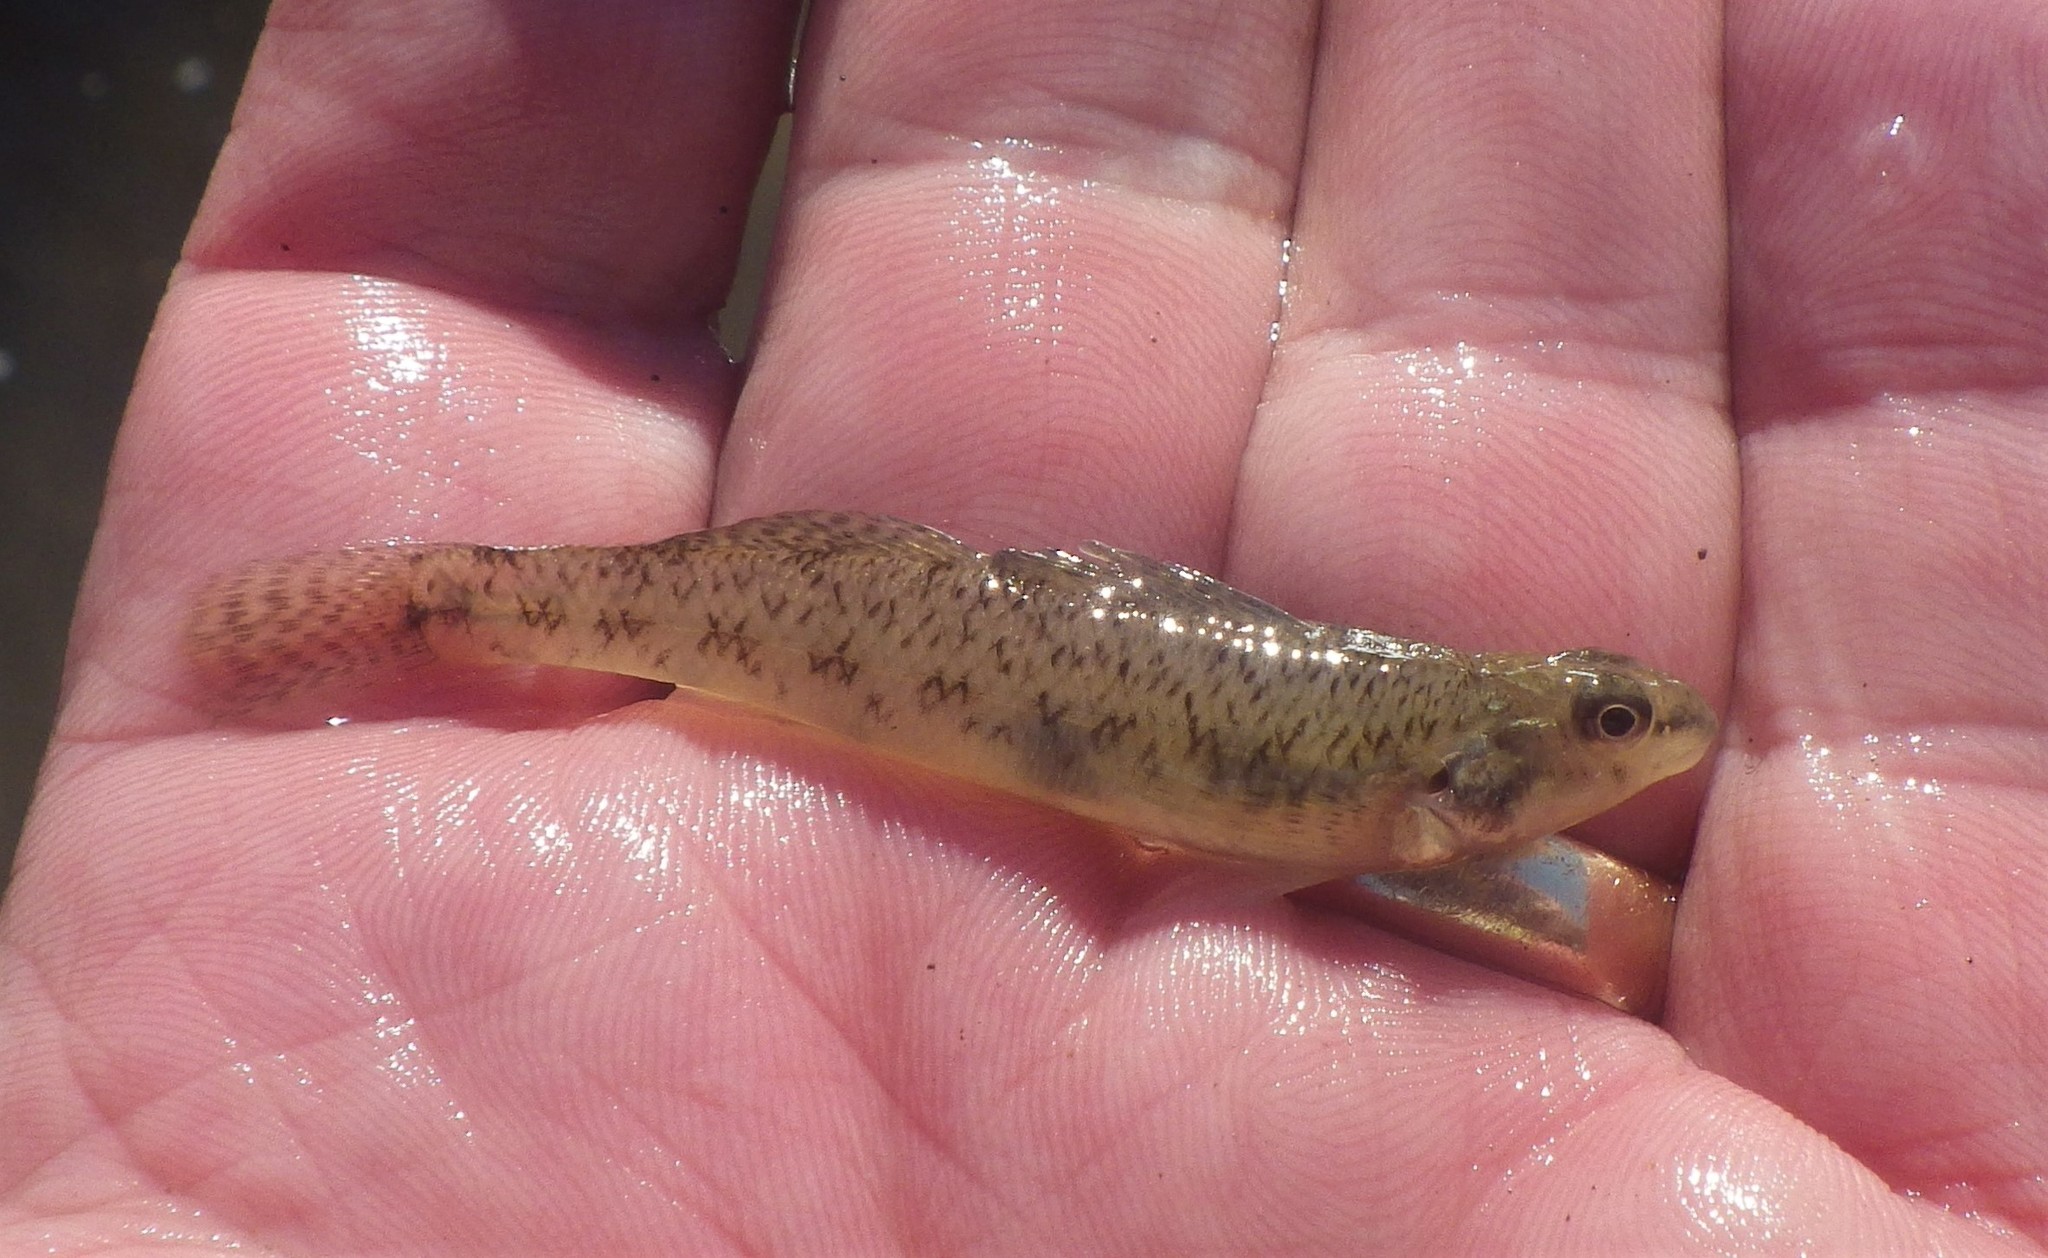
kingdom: Animalia
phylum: Chordata
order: Perciformes
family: Percidae
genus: Etheostoma
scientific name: Etheostoma nigrum
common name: Johnny darter
